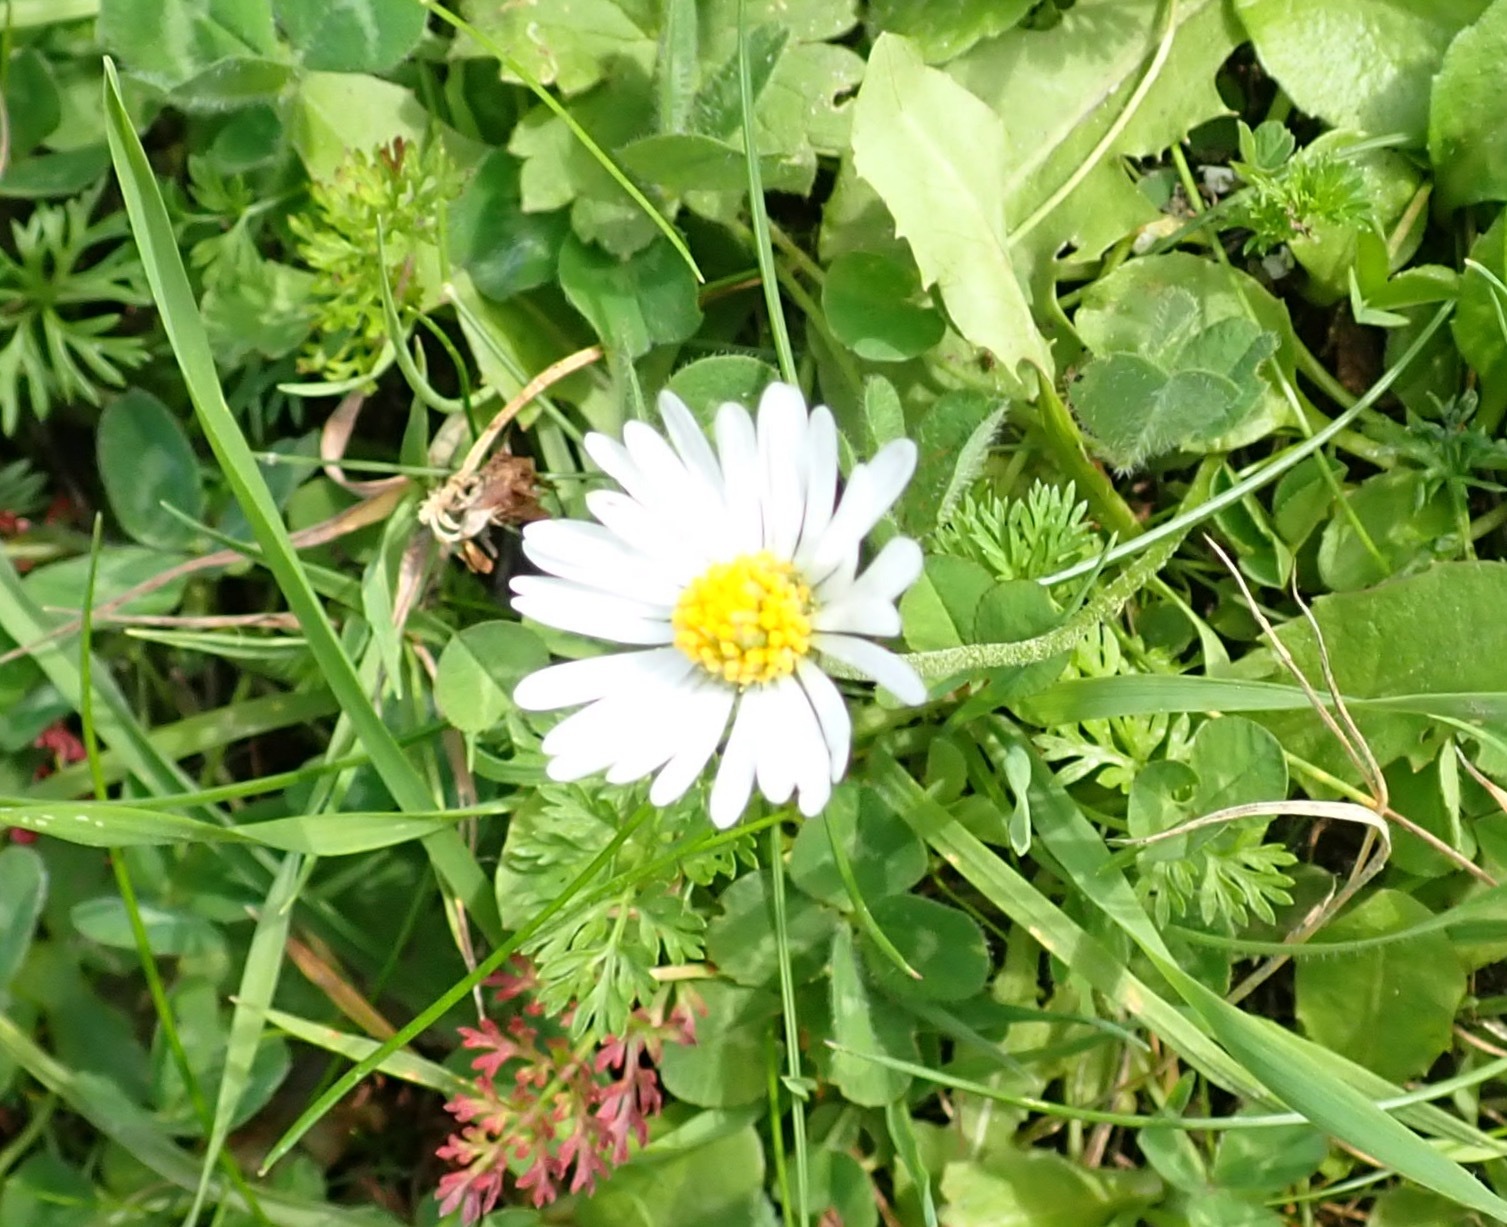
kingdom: Plantae
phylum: Tracheophyta
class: Magnoliopsida
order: Asterales
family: Asteraceae
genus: Bellis
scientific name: Bellis perennis
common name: Lawndaisy
